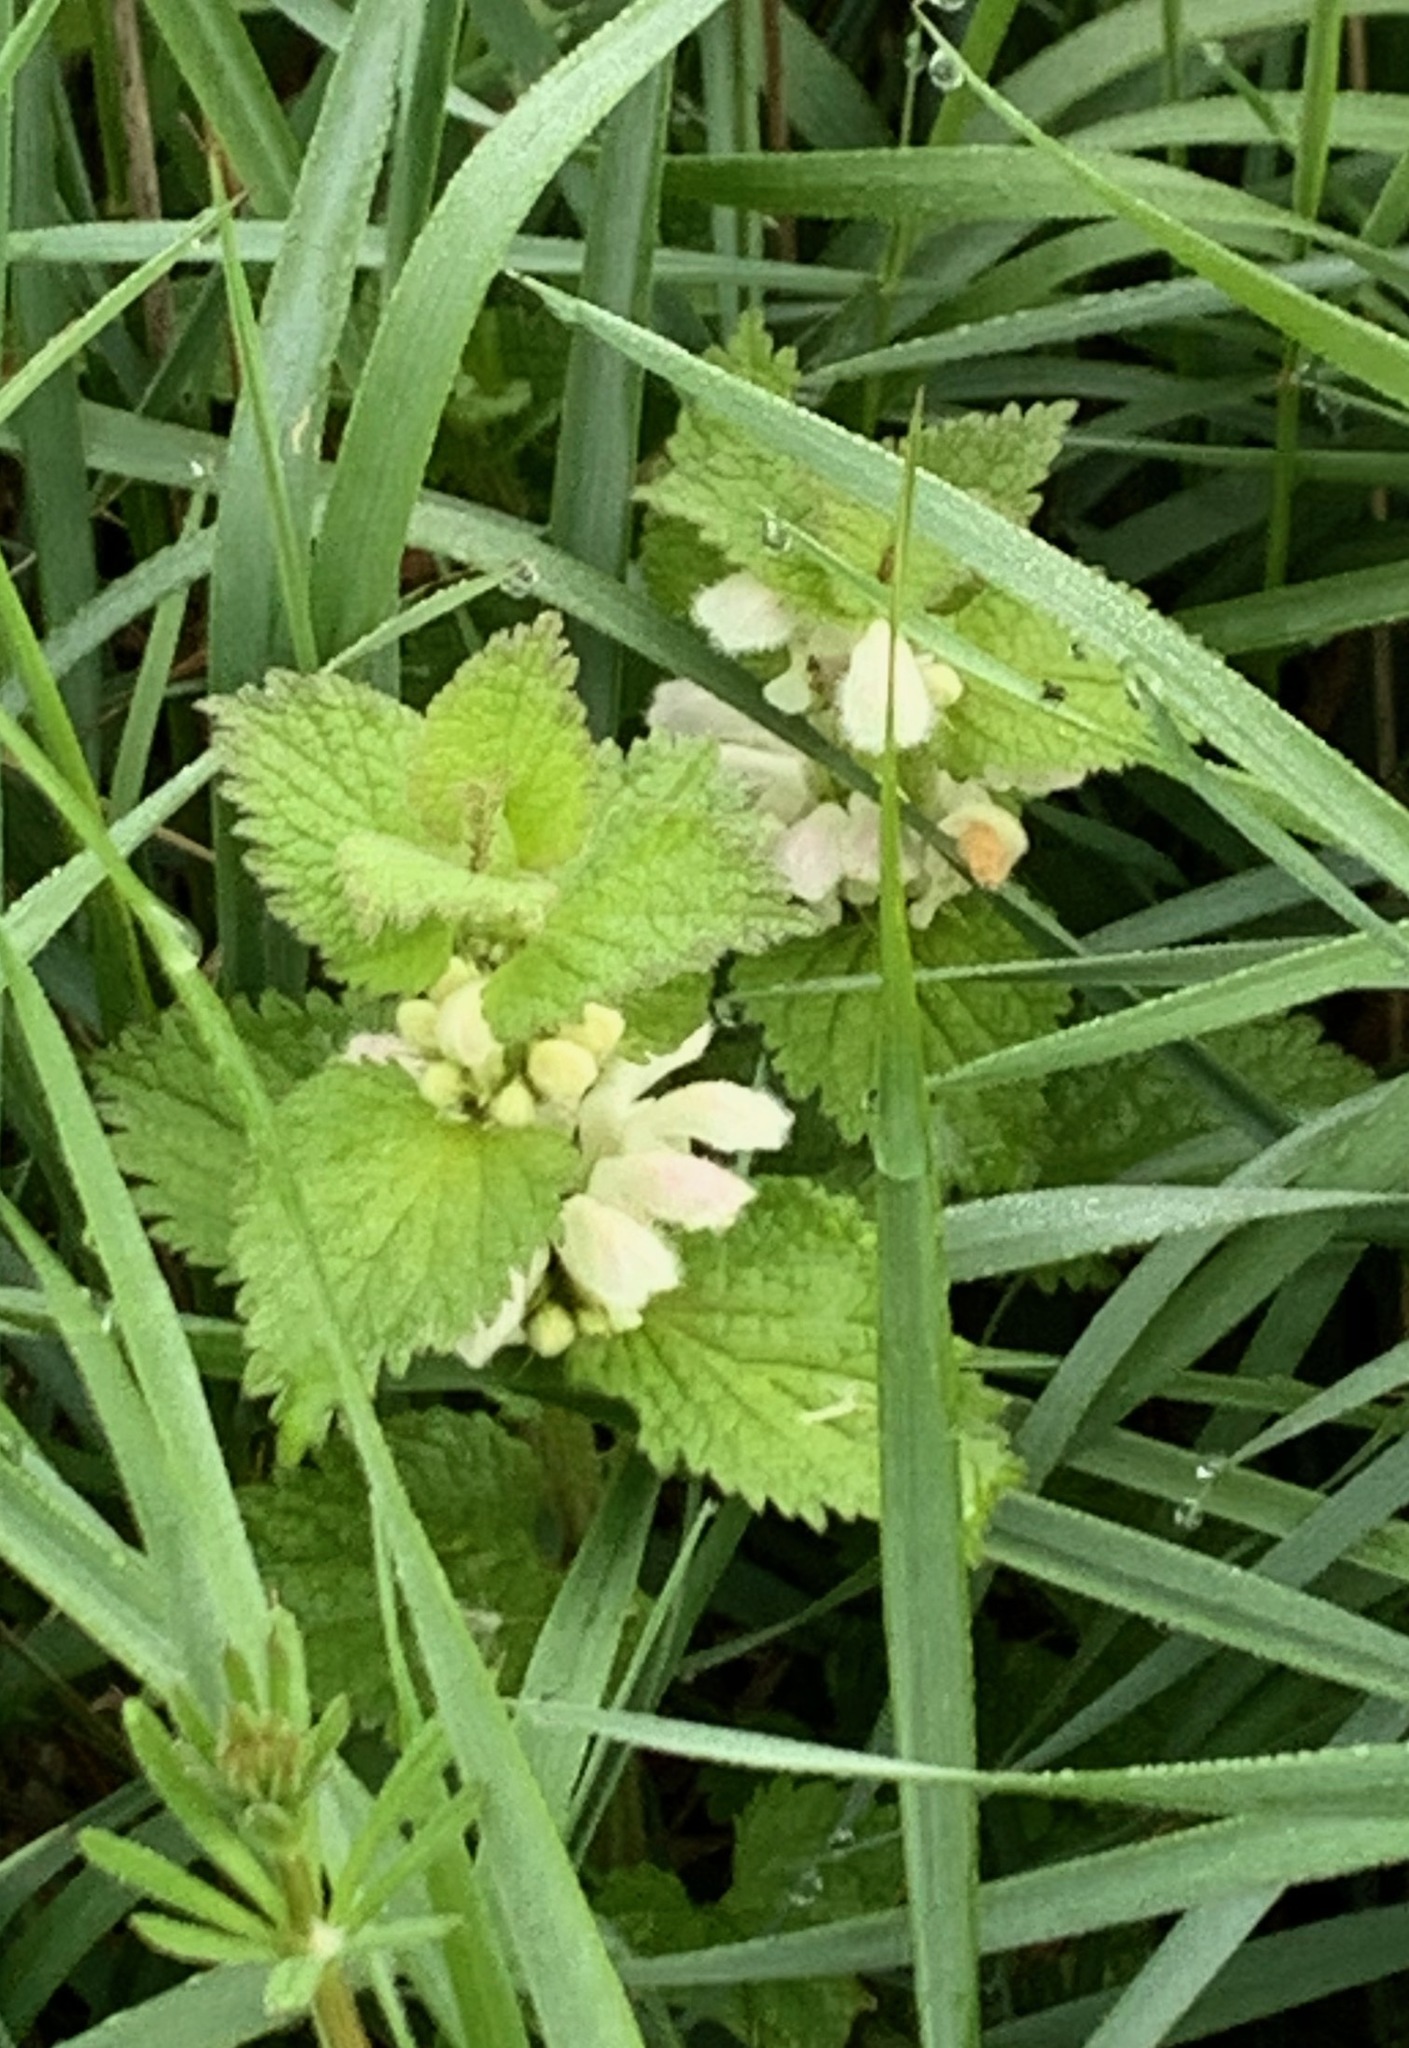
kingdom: Plantae
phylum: Tracheophyta
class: Magnoliopsida
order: Lamiales
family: Lamiaceae
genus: Lamium
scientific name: Lamium album
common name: White dead-nettle
